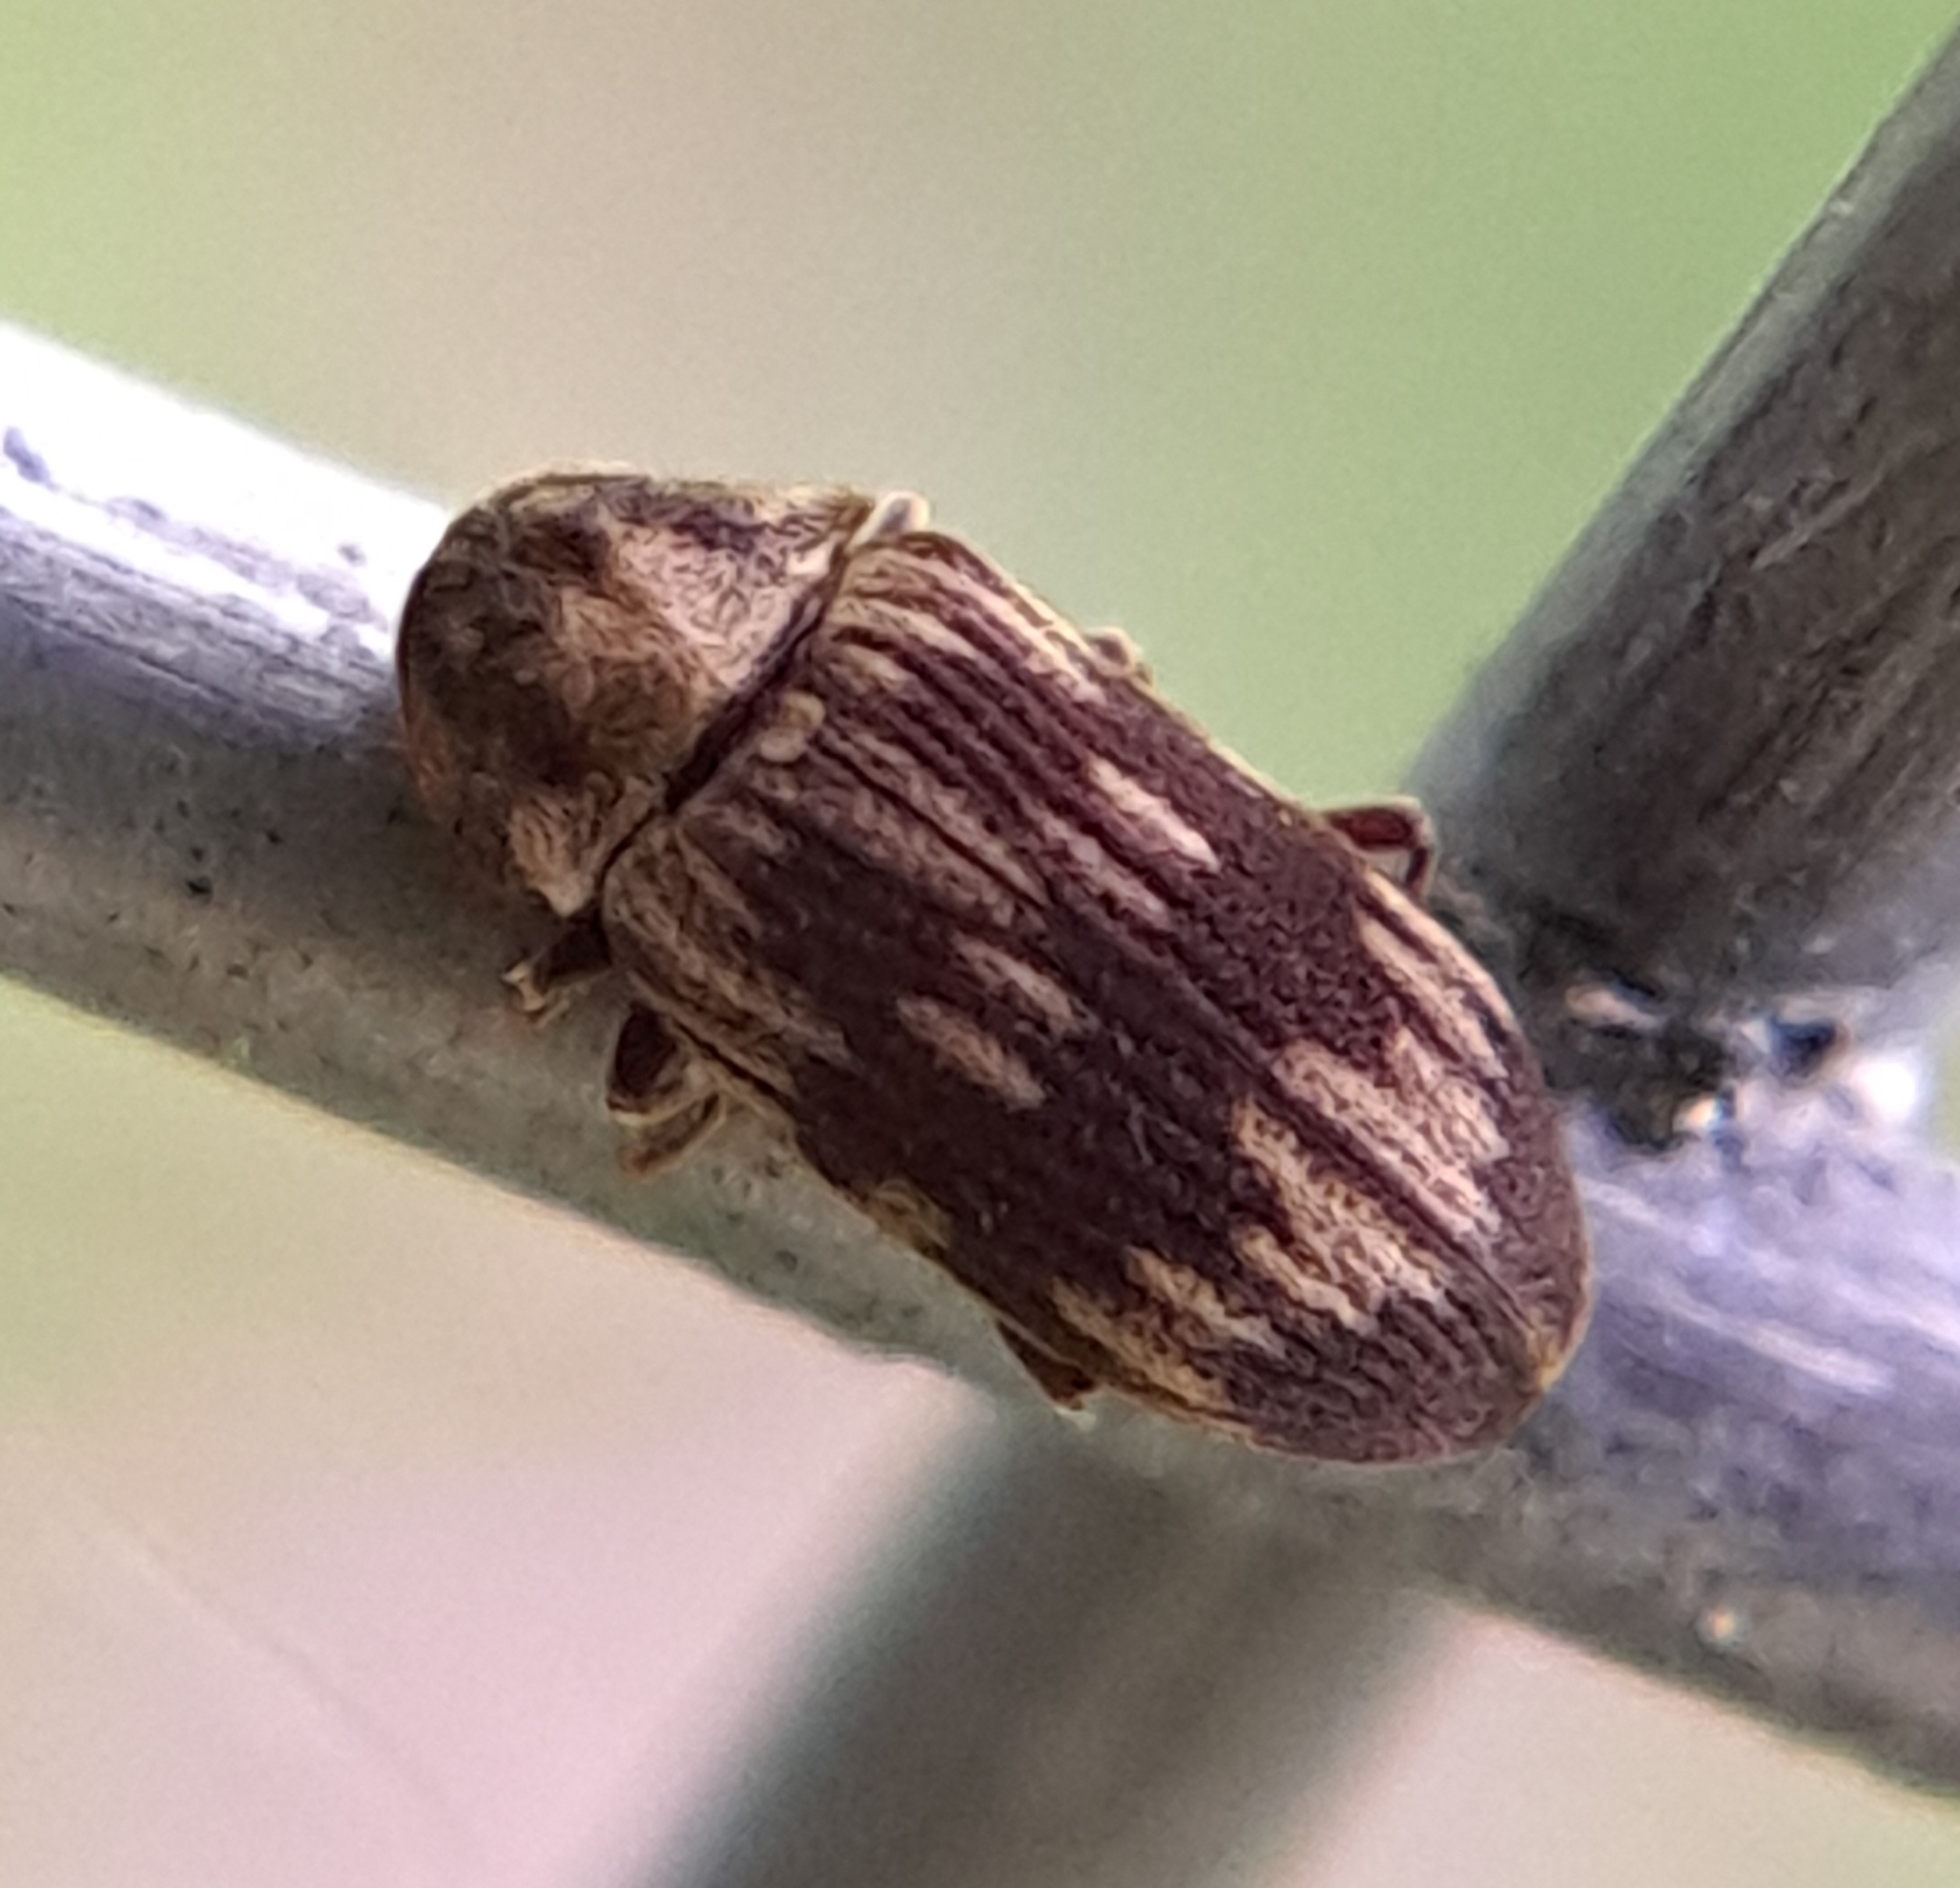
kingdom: Animalia
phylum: Arthropoda
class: Insecta
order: Coleoptera
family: Anobiidae
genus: Hadrobregmus
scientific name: Hadrobregmus notatus
